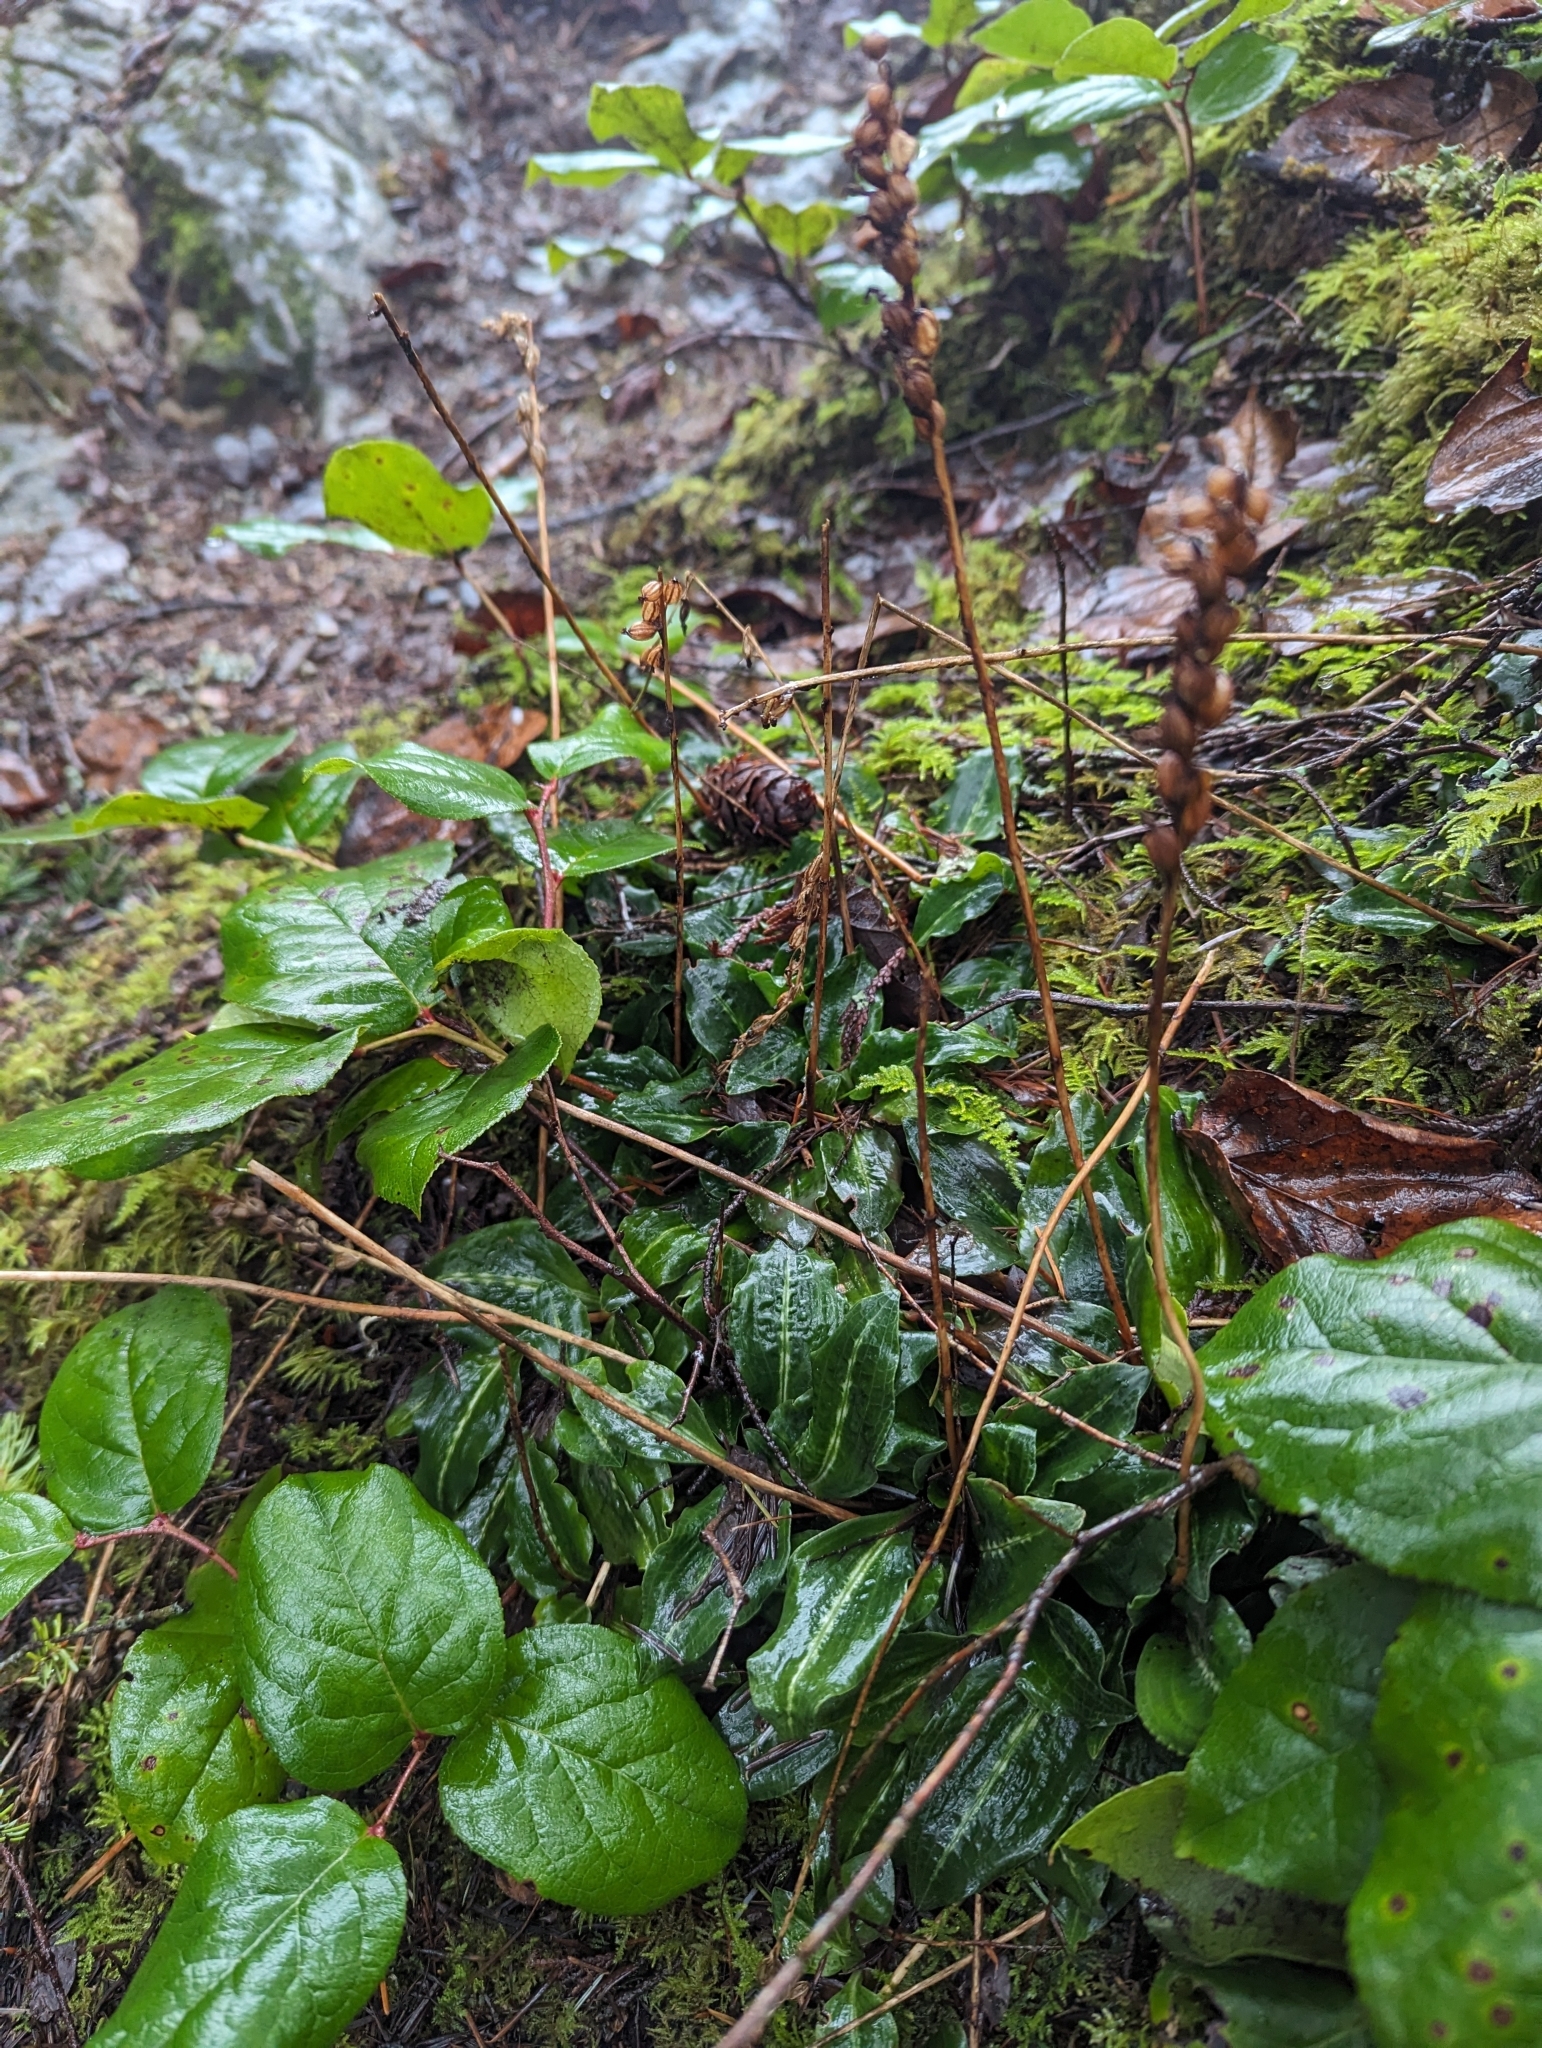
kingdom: Plantae
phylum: Tracheophyta
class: Liliopsida
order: Asparagales
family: Orchidaceae
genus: Goodyera
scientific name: Goodyera oblongifolia
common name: Giant rattlesnake-plantain
